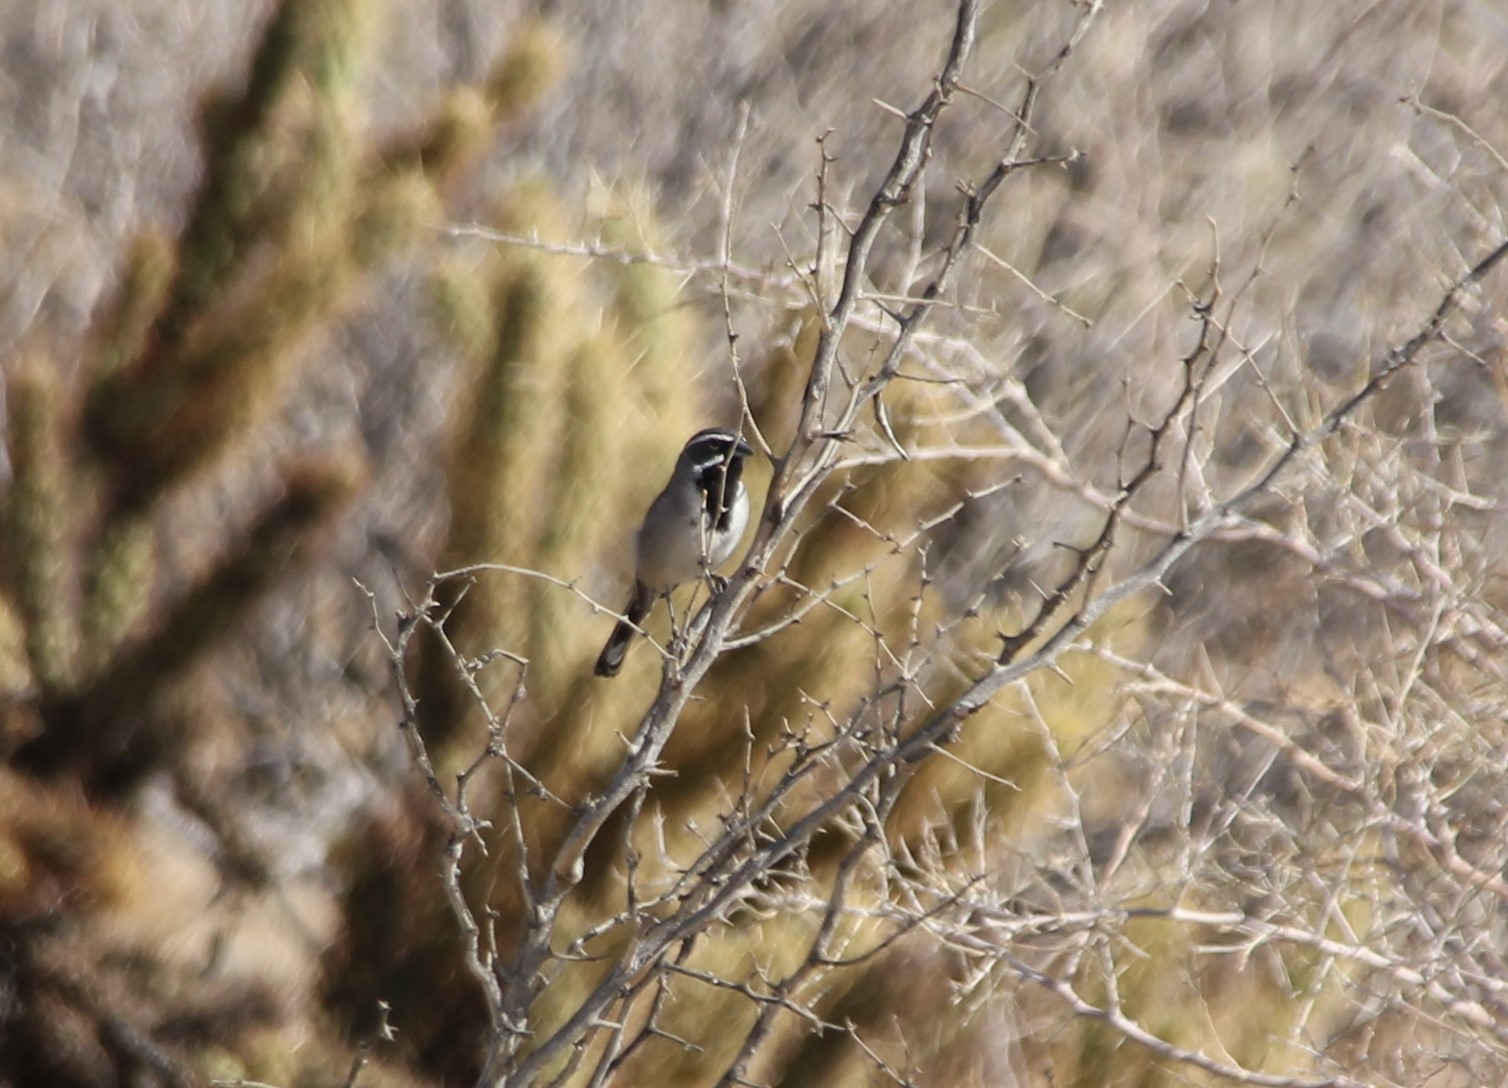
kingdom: Animalia
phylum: Chordata
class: Aves
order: Passeriformes
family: Passerellidae
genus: Amphispiza
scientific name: Amphispiza bilineata
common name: Black-throated sparrow
